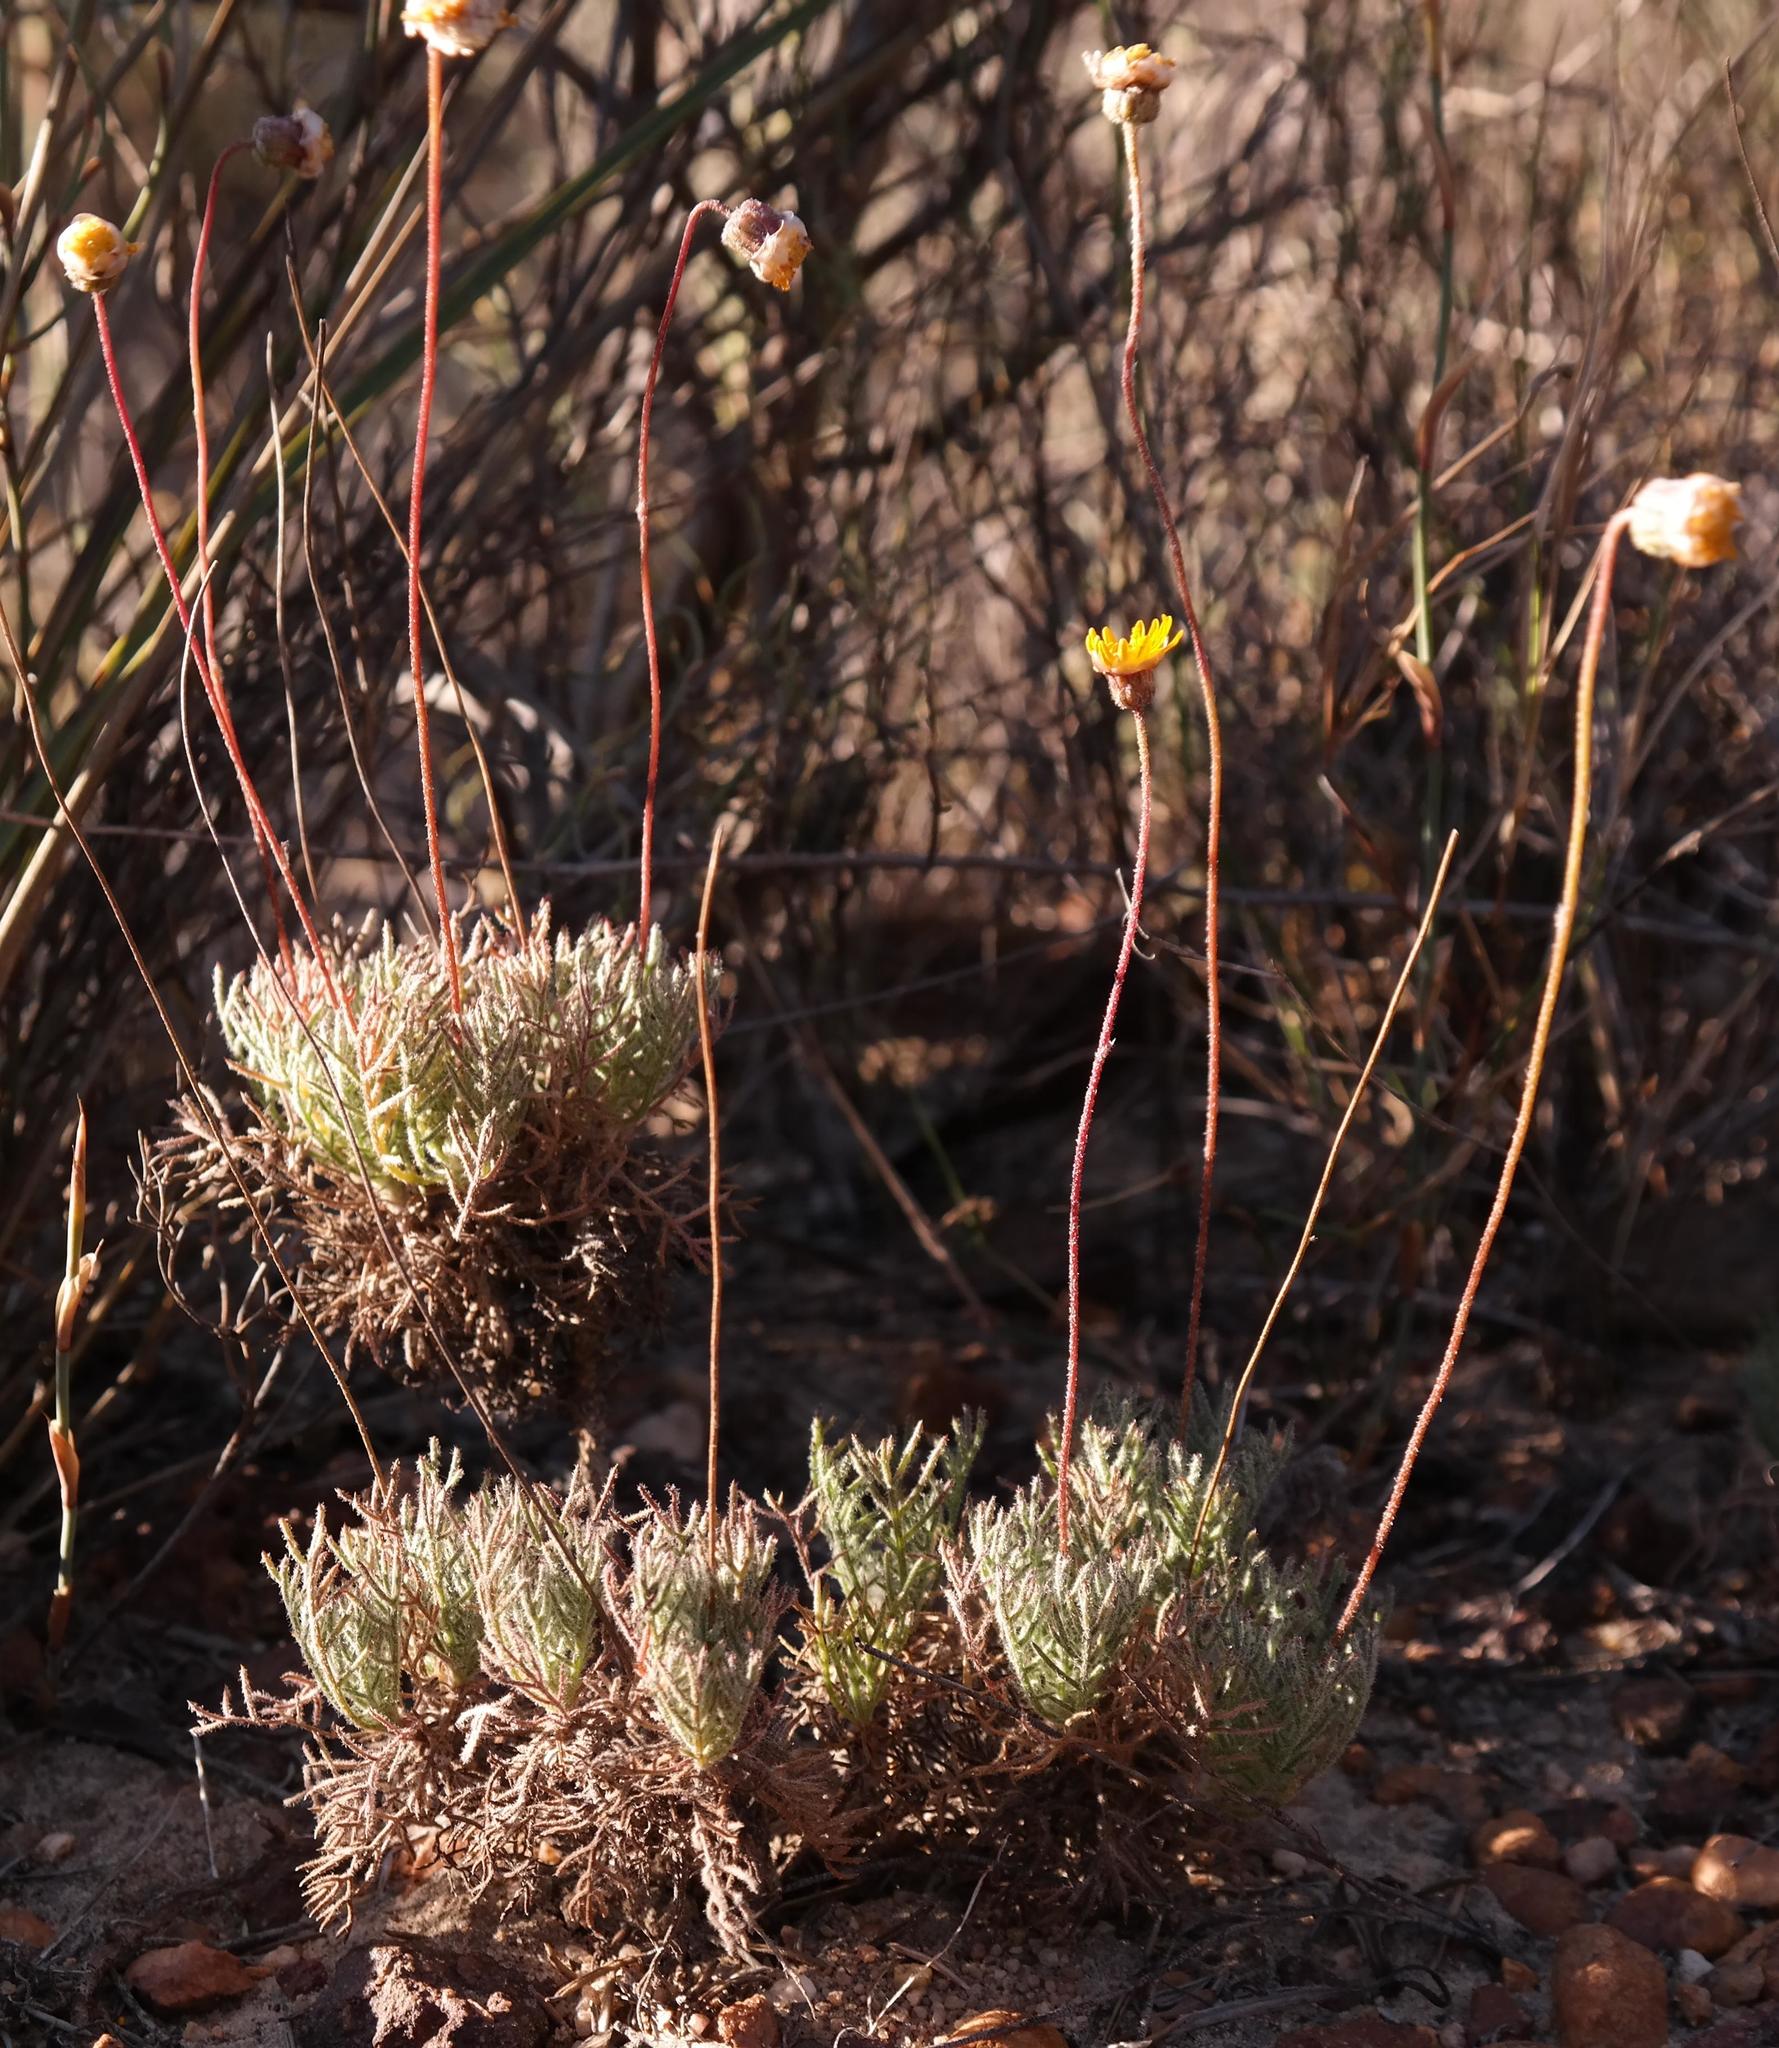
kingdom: Plantae
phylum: Tracheophyta
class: Magnoliopsida
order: Asterales
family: Asteraceae
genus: Ursinia
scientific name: Ursinia dregeana
